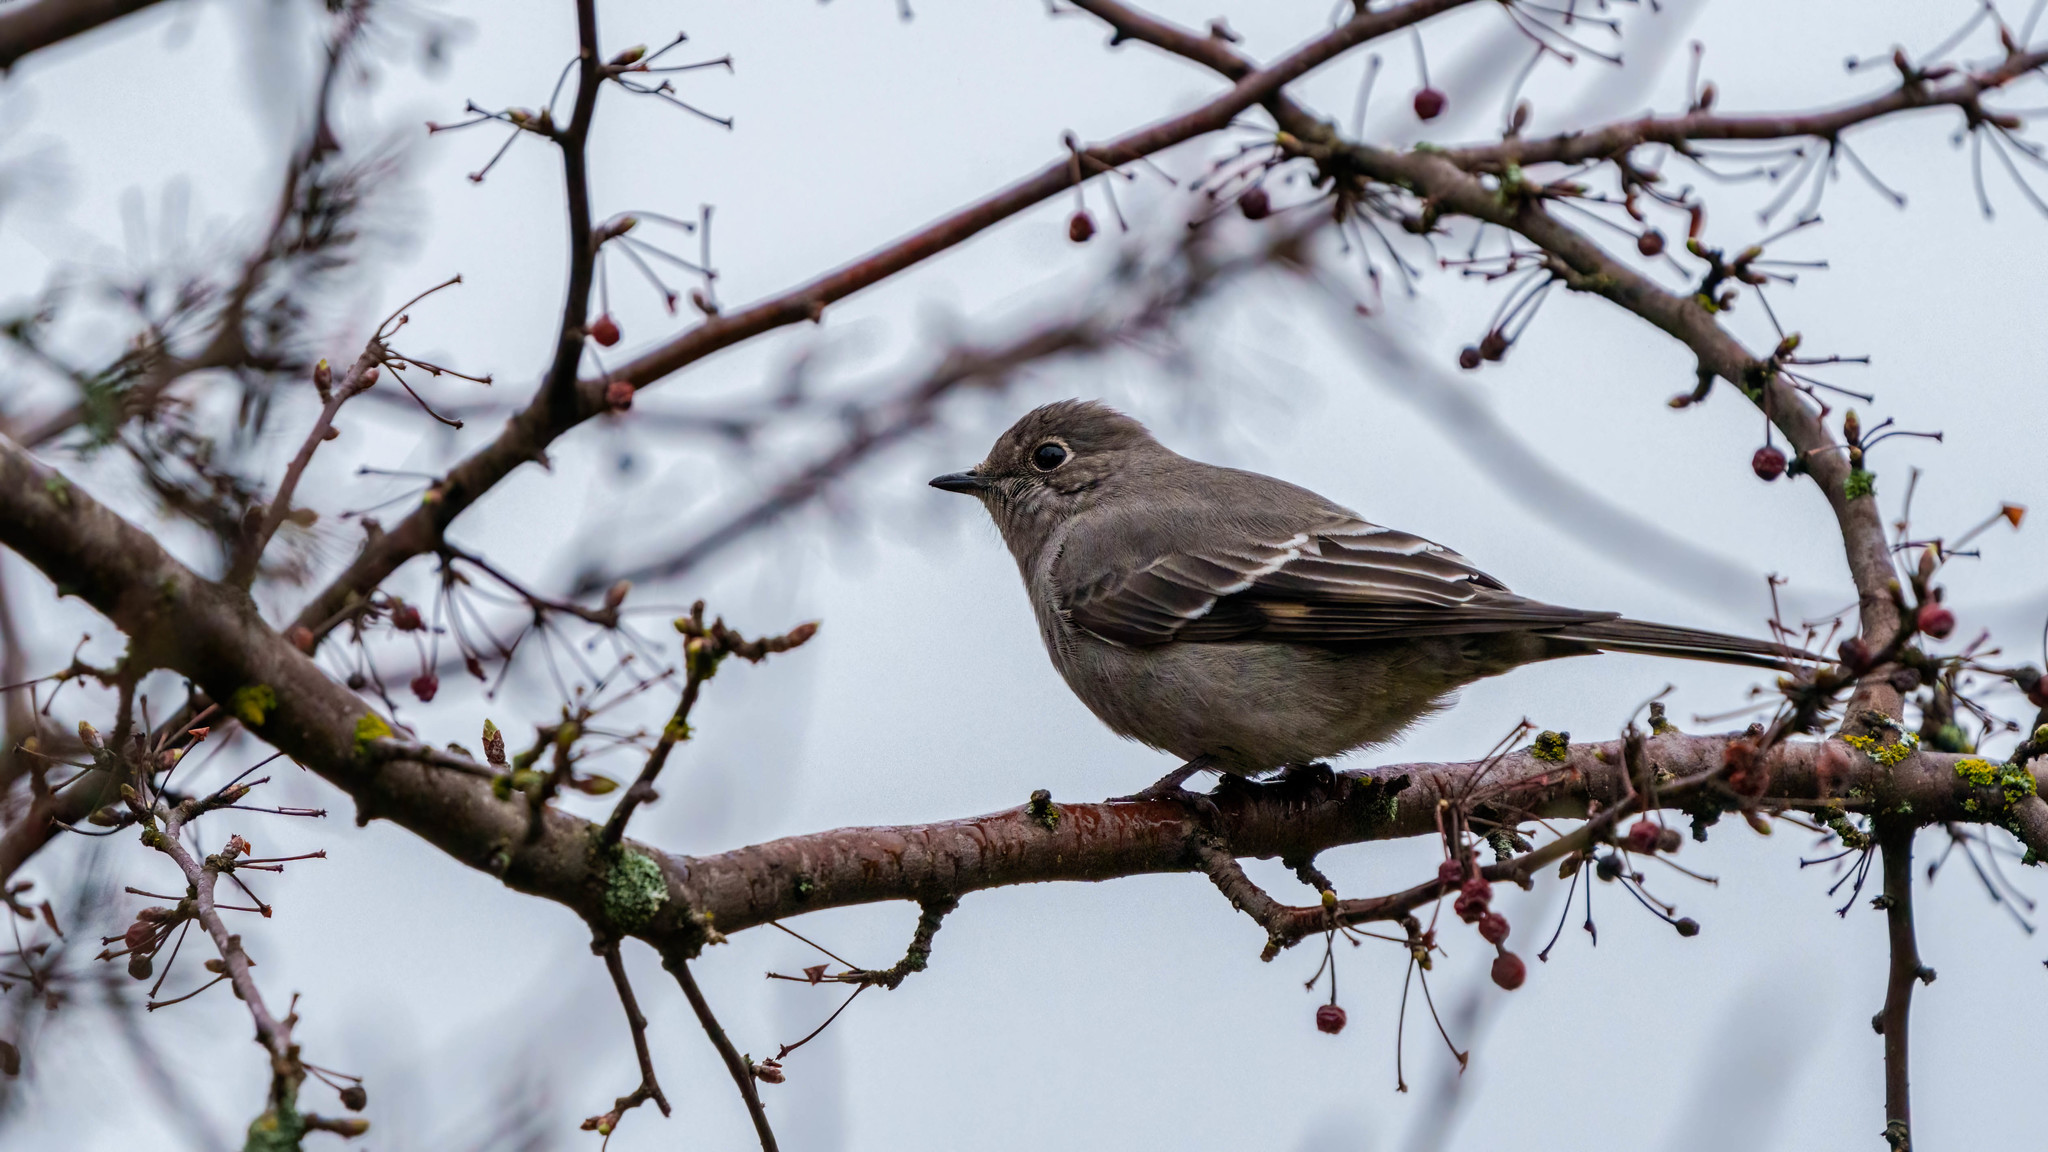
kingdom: Animalia
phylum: Chordata
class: Aves
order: Passeriformes
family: Turdidae
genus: Myadestes
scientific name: Myadestes townsendi
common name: Townsend's solitaire
